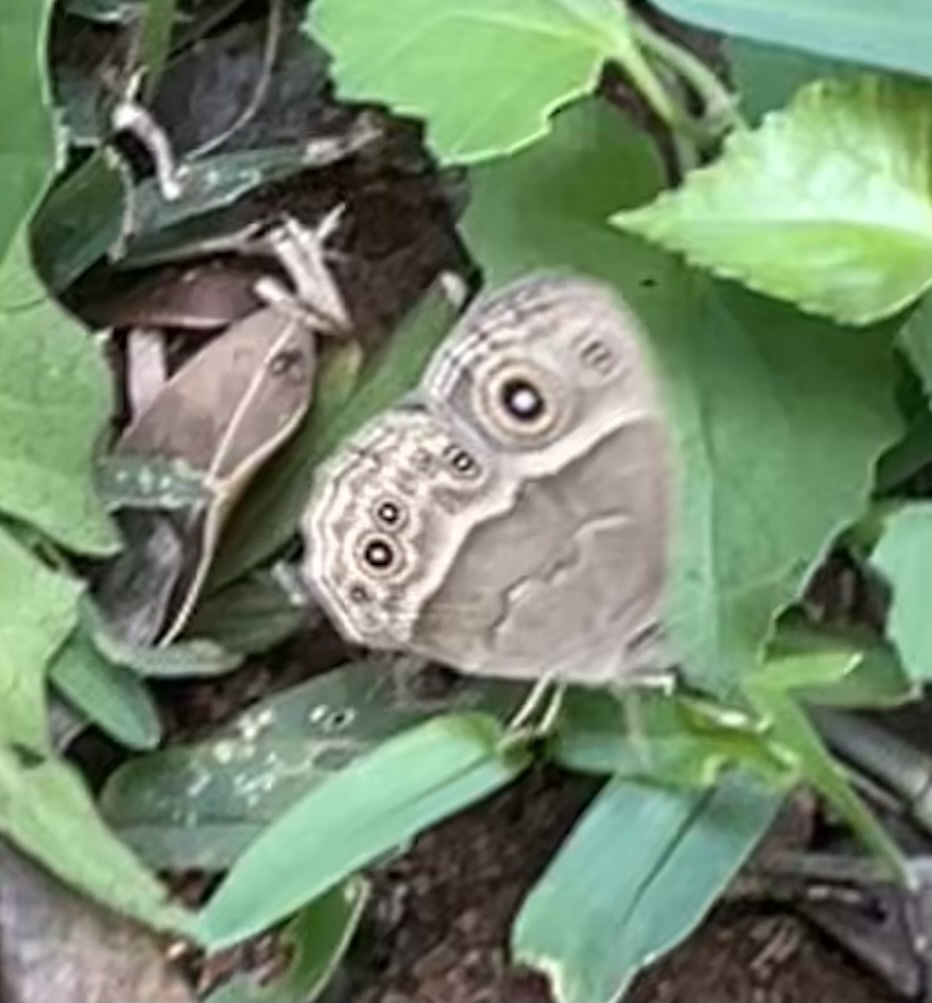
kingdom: Animalia
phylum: Arthropoda
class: Insecta
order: Lepidoptera
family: Nymphalidae
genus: Mycalesis
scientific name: Mycalesis anynana
